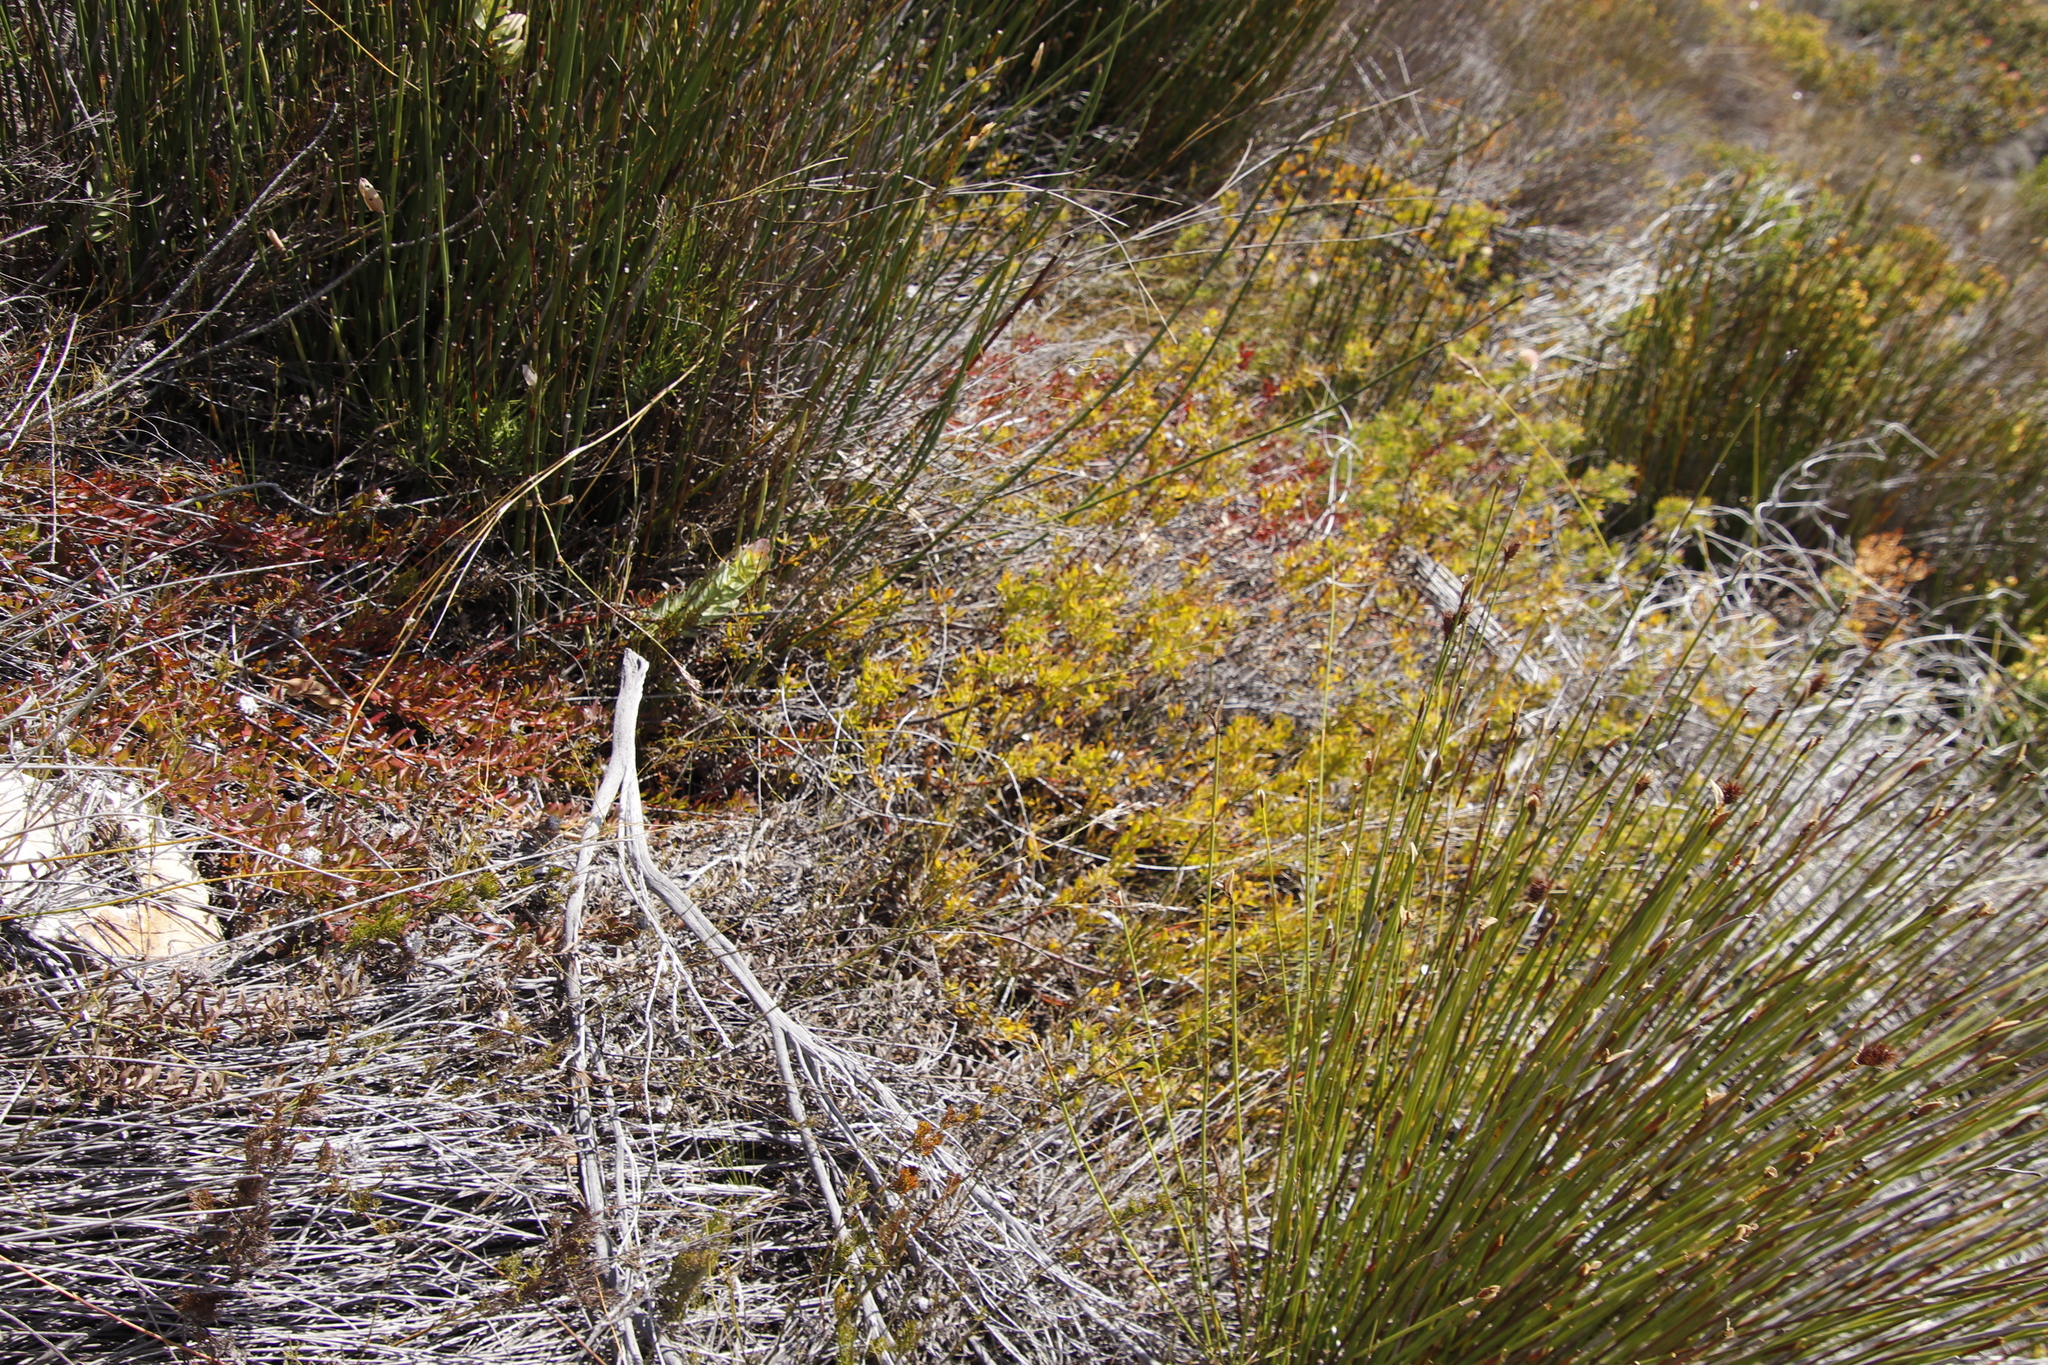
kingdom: Plantae
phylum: Tracheophyta
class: Magnoliopsida
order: Proteales
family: Proteaceae
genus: Leucospermum
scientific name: Leucospermum heterophyllum
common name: Trident pincushion
